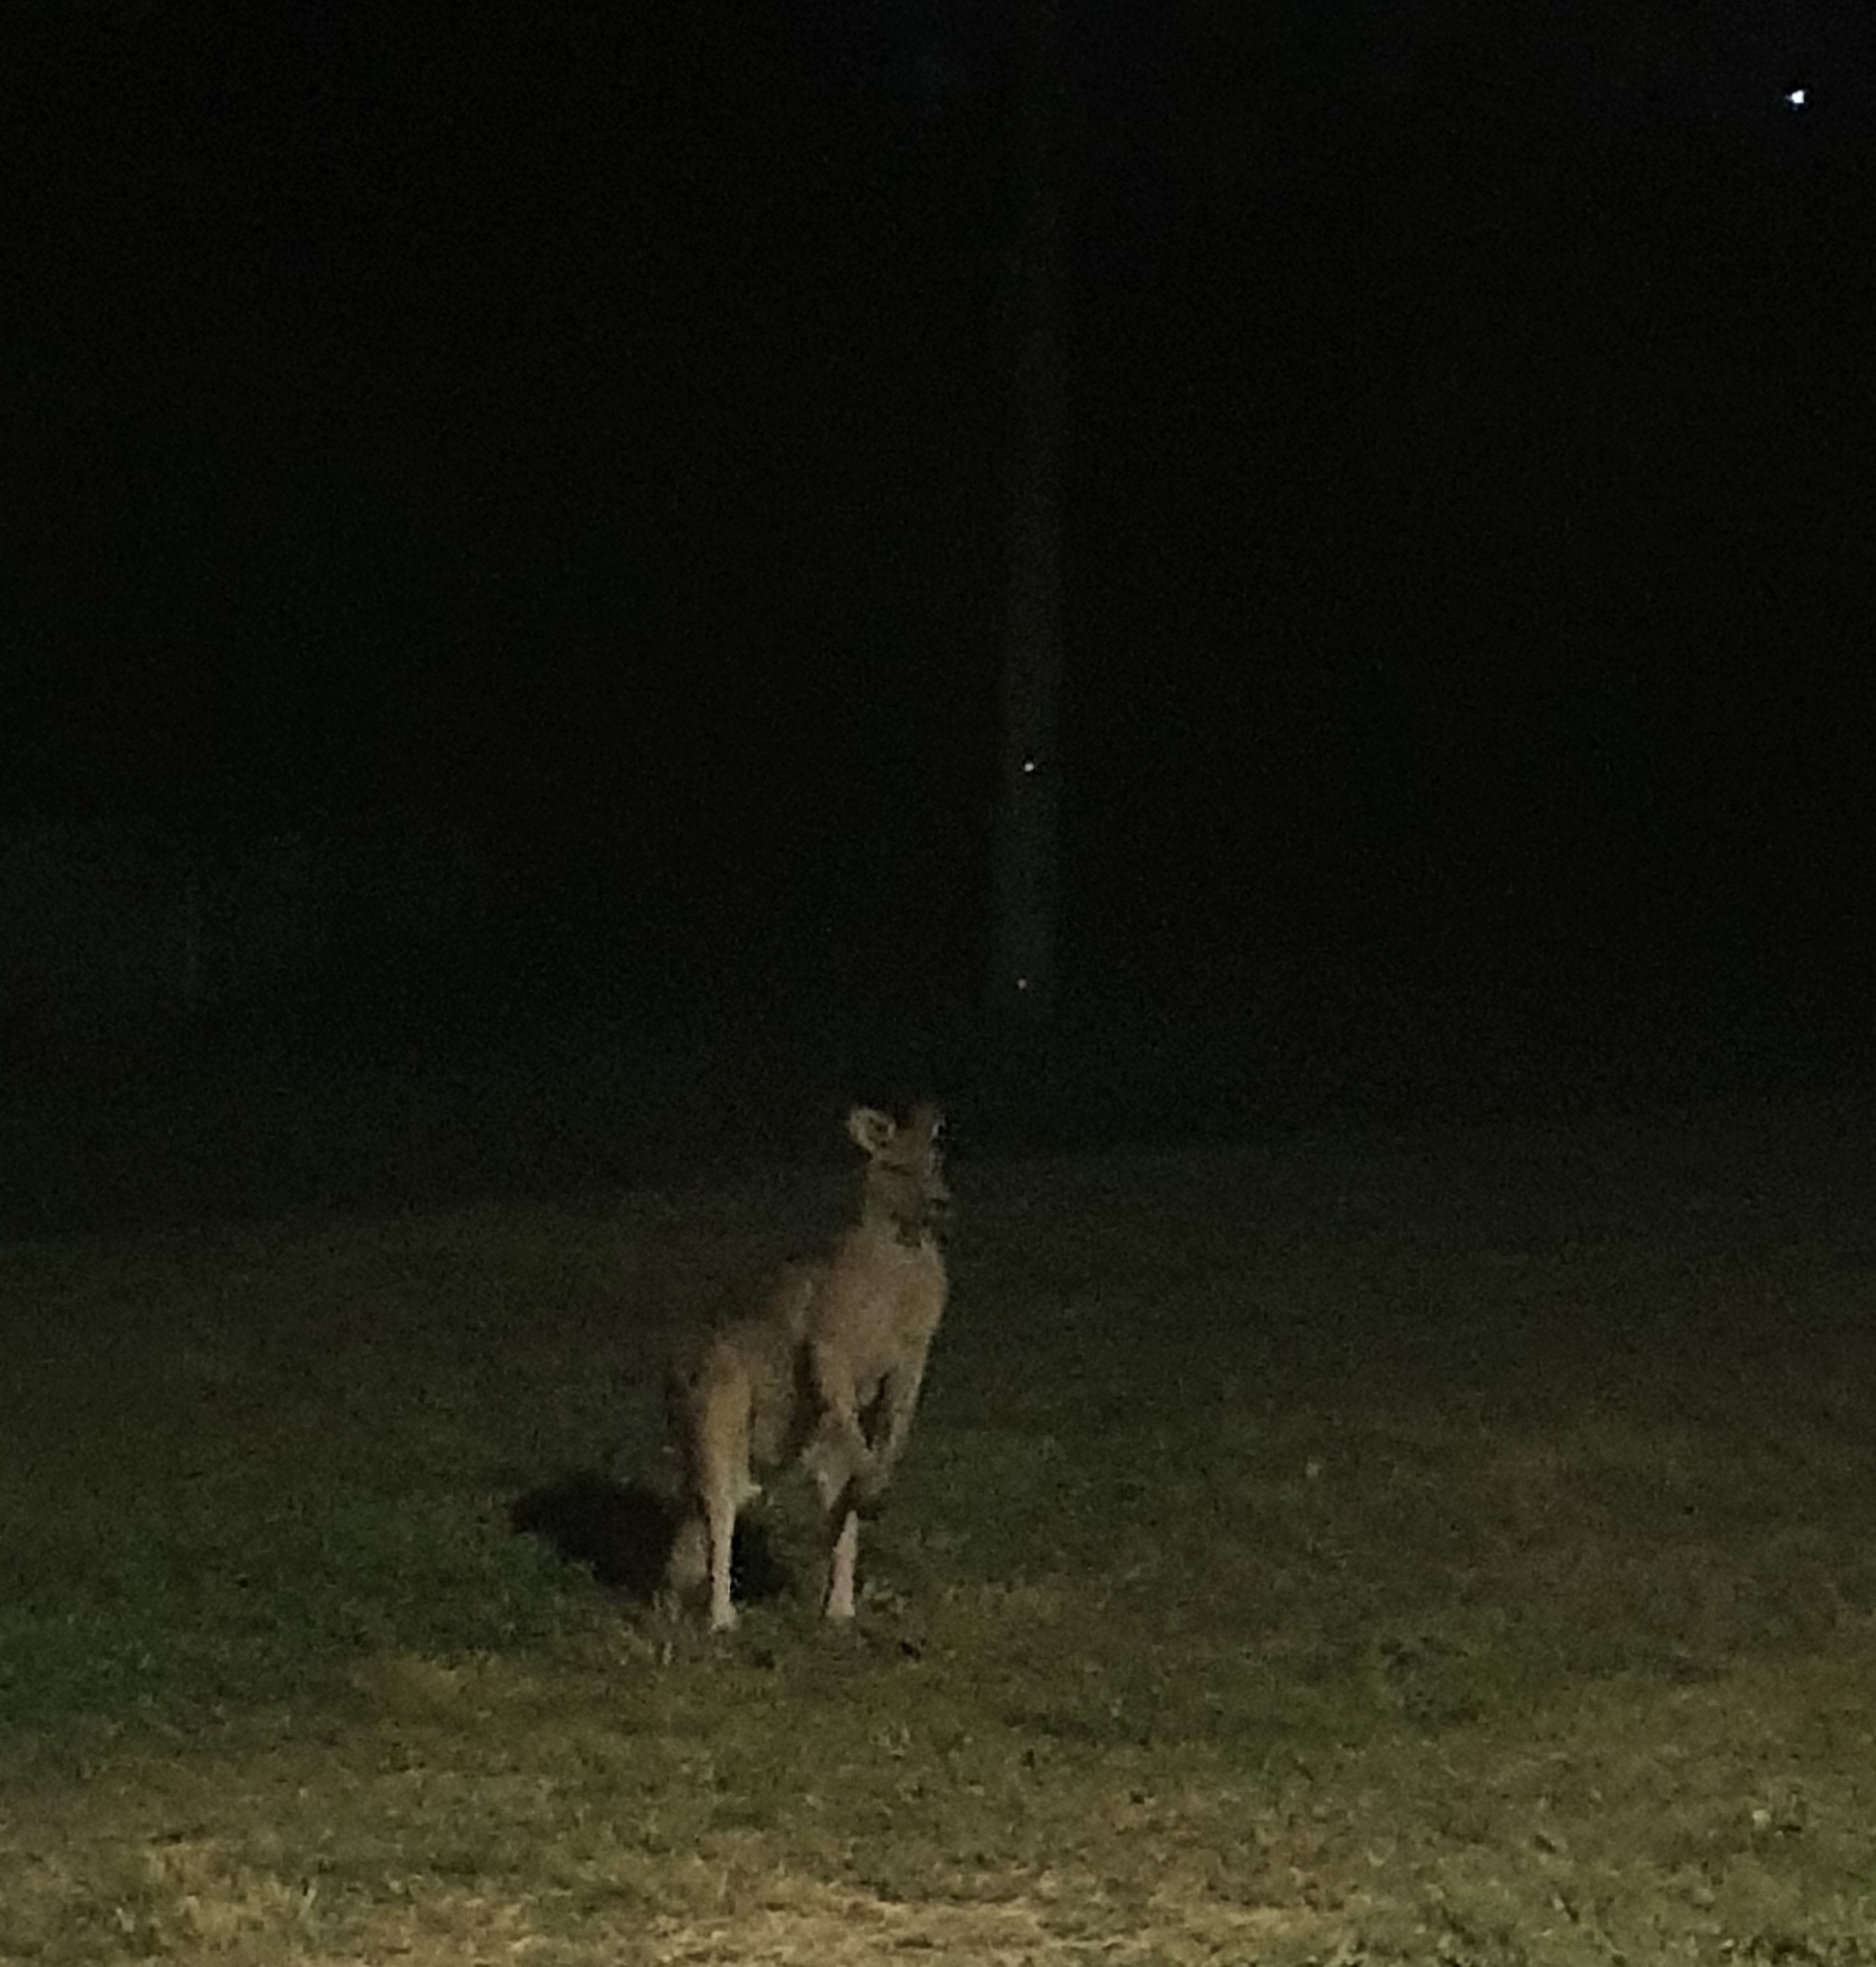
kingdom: Animalia
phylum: Chordata
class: Mammalia
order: Diprotodontia
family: Macropodidae
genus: Macropus
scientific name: Macropus giganteus
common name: Eastern grey kangaroo
